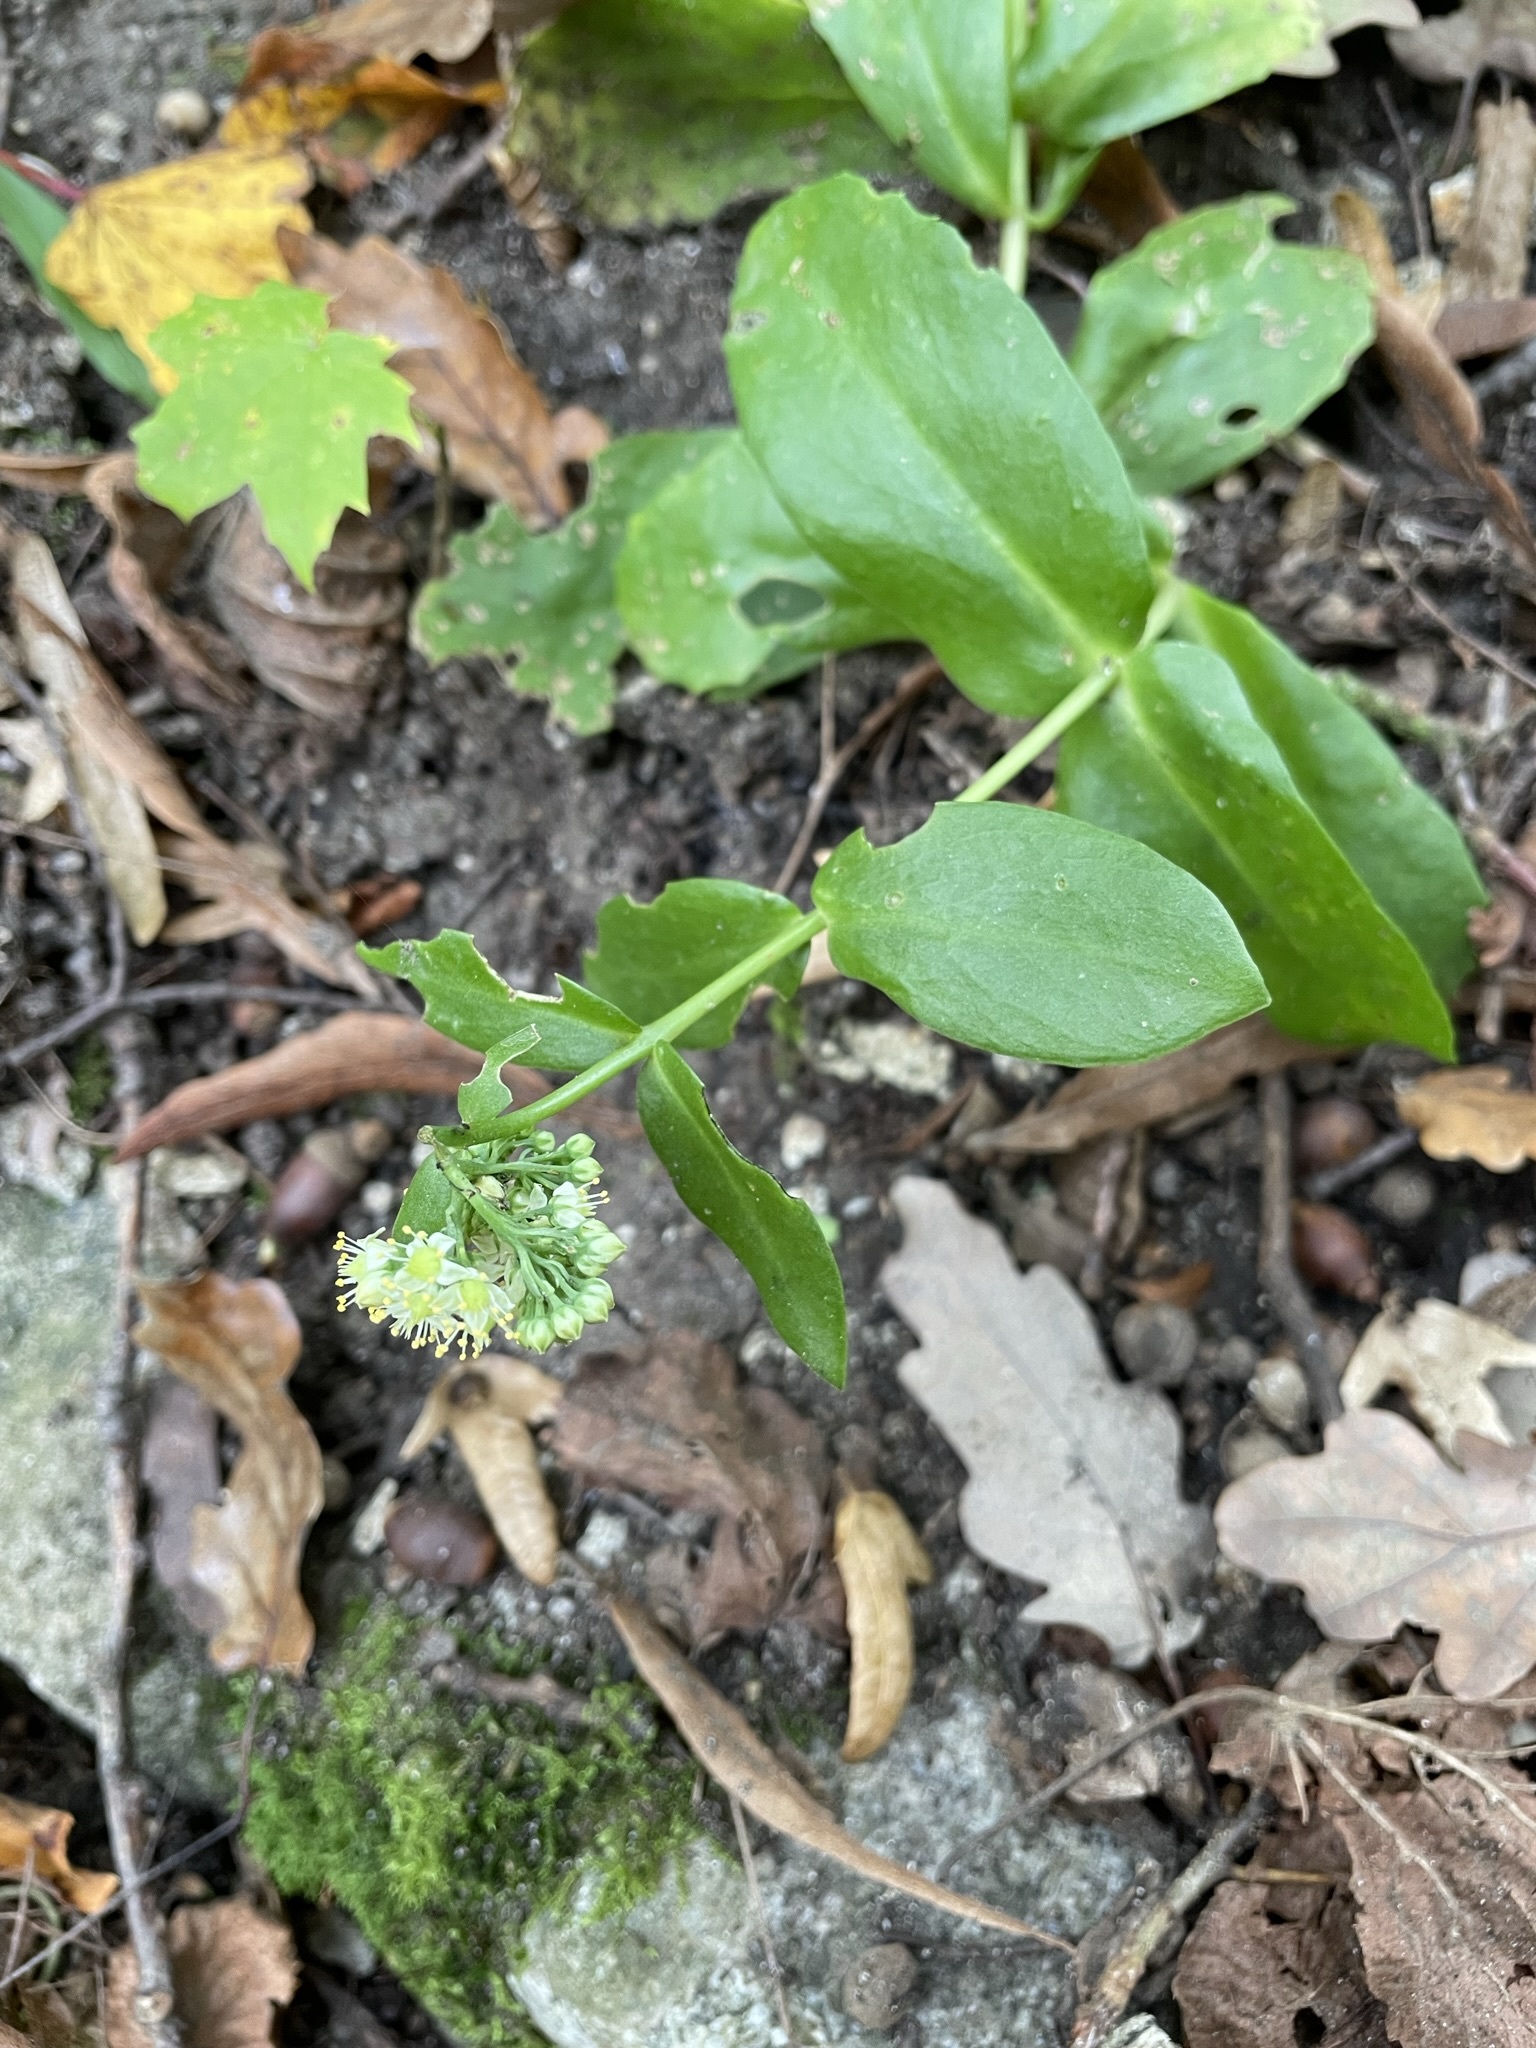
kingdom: Plantae
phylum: Tracheophyta
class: Magnoliopsida
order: Saxifragales
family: Crassulaceae
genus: Hylotelephium
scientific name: Hylotelephium maximum
